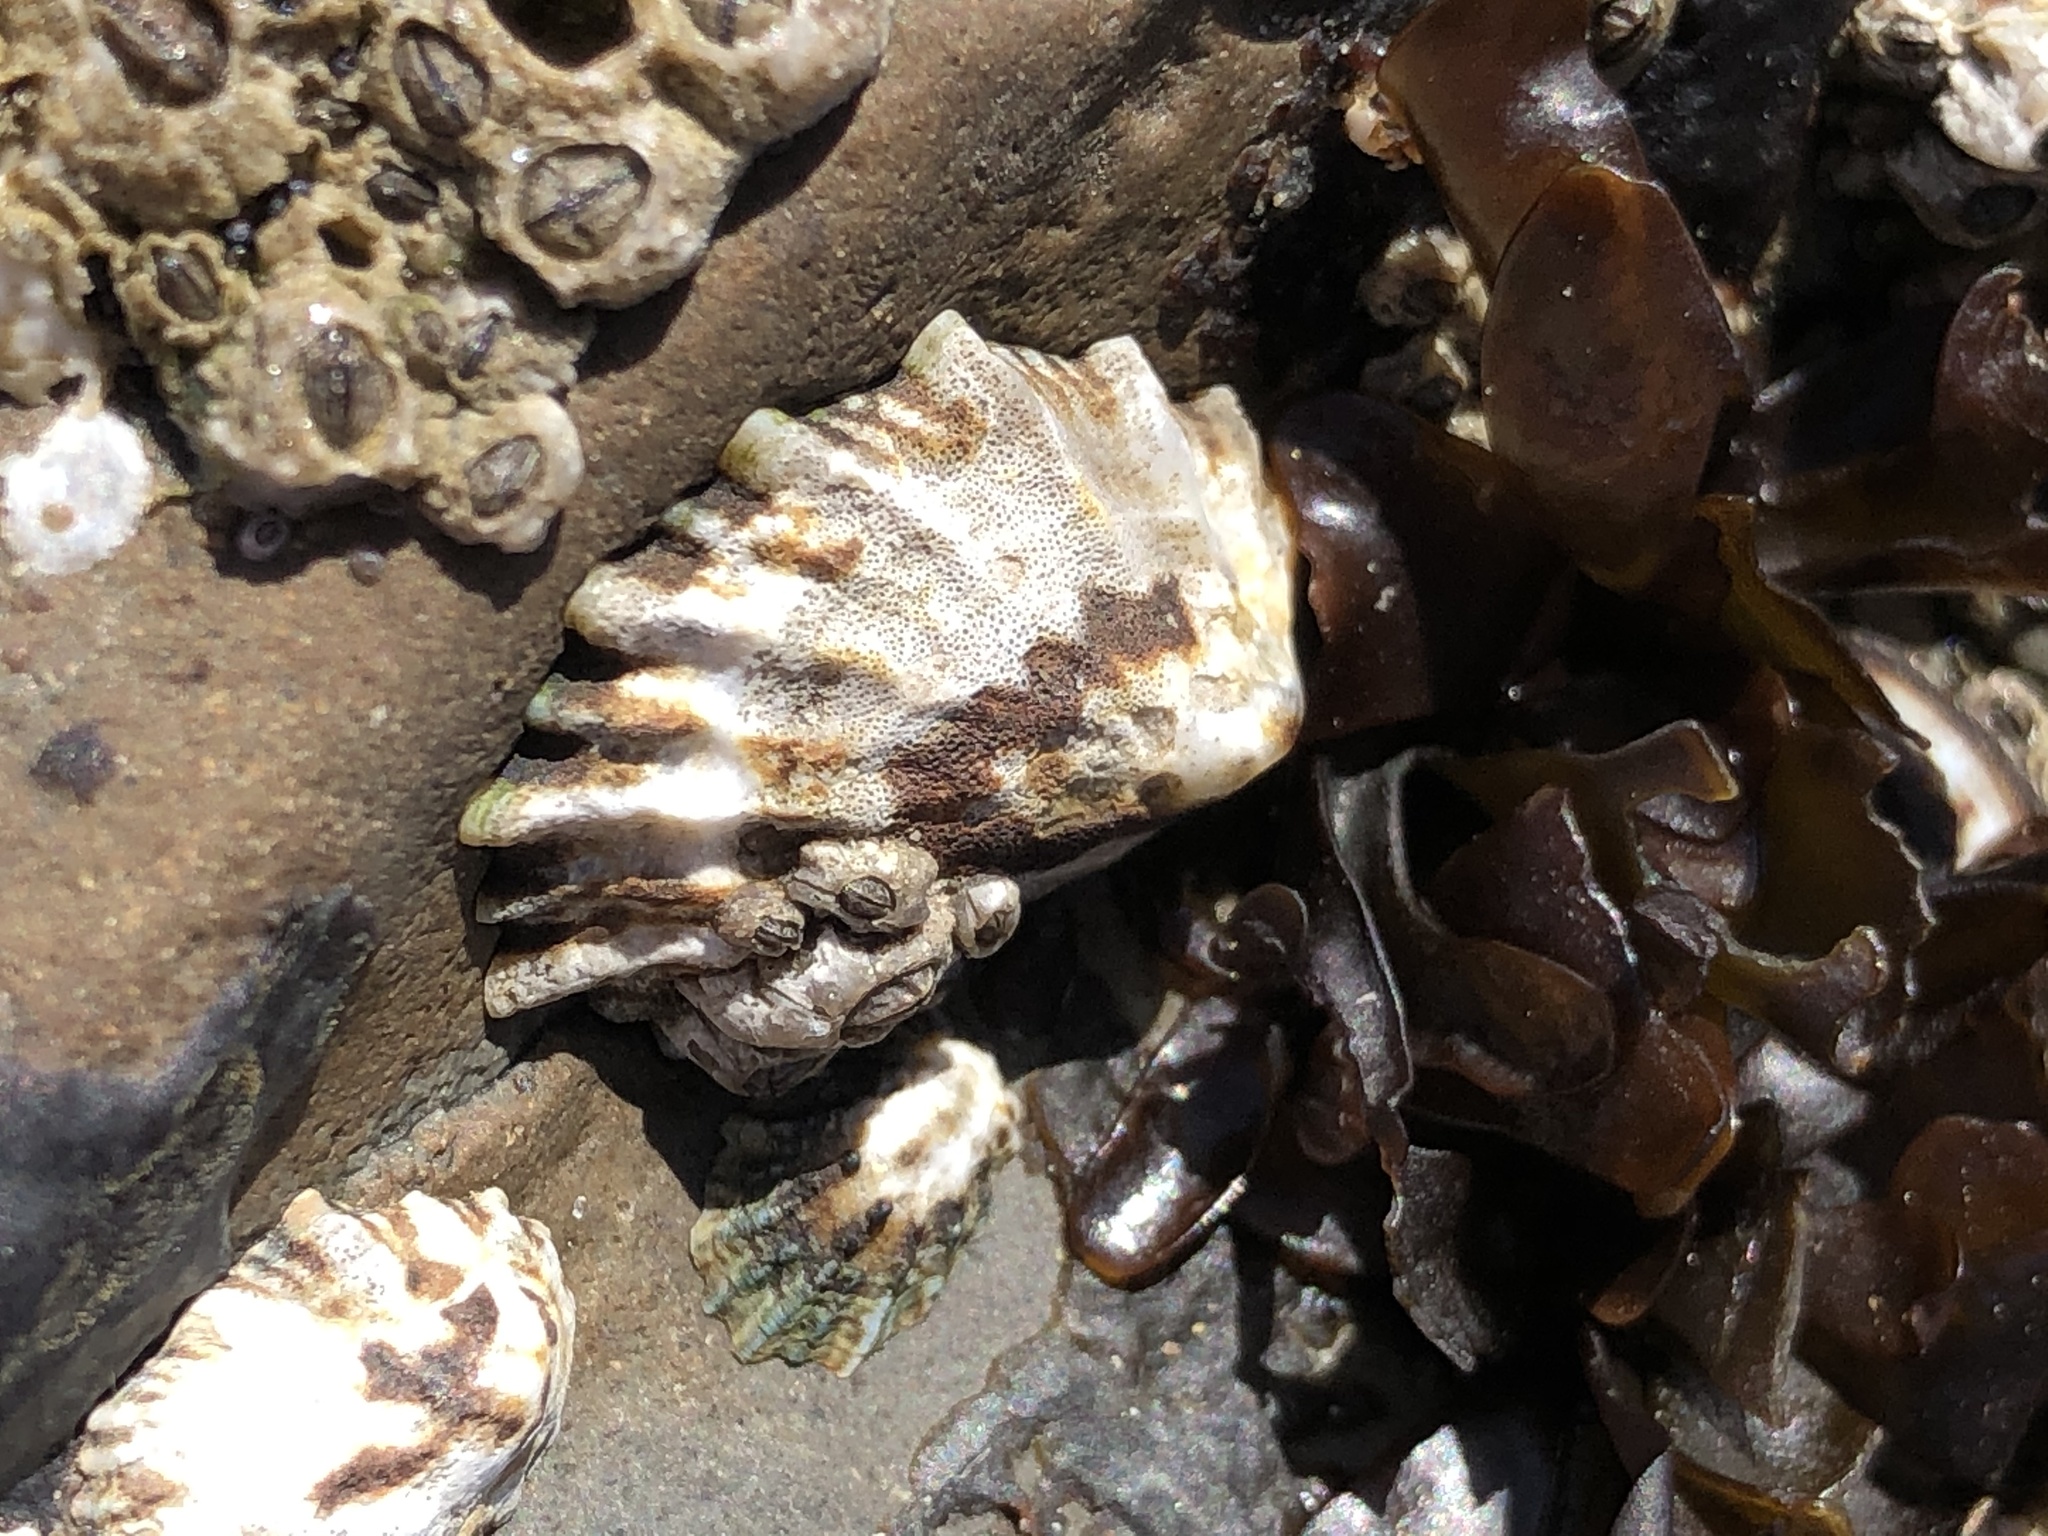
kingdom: Animalia
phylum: Mollusca
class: Gastropoda
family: Lottiidae
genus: Lottia
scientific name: Lottia scabra
